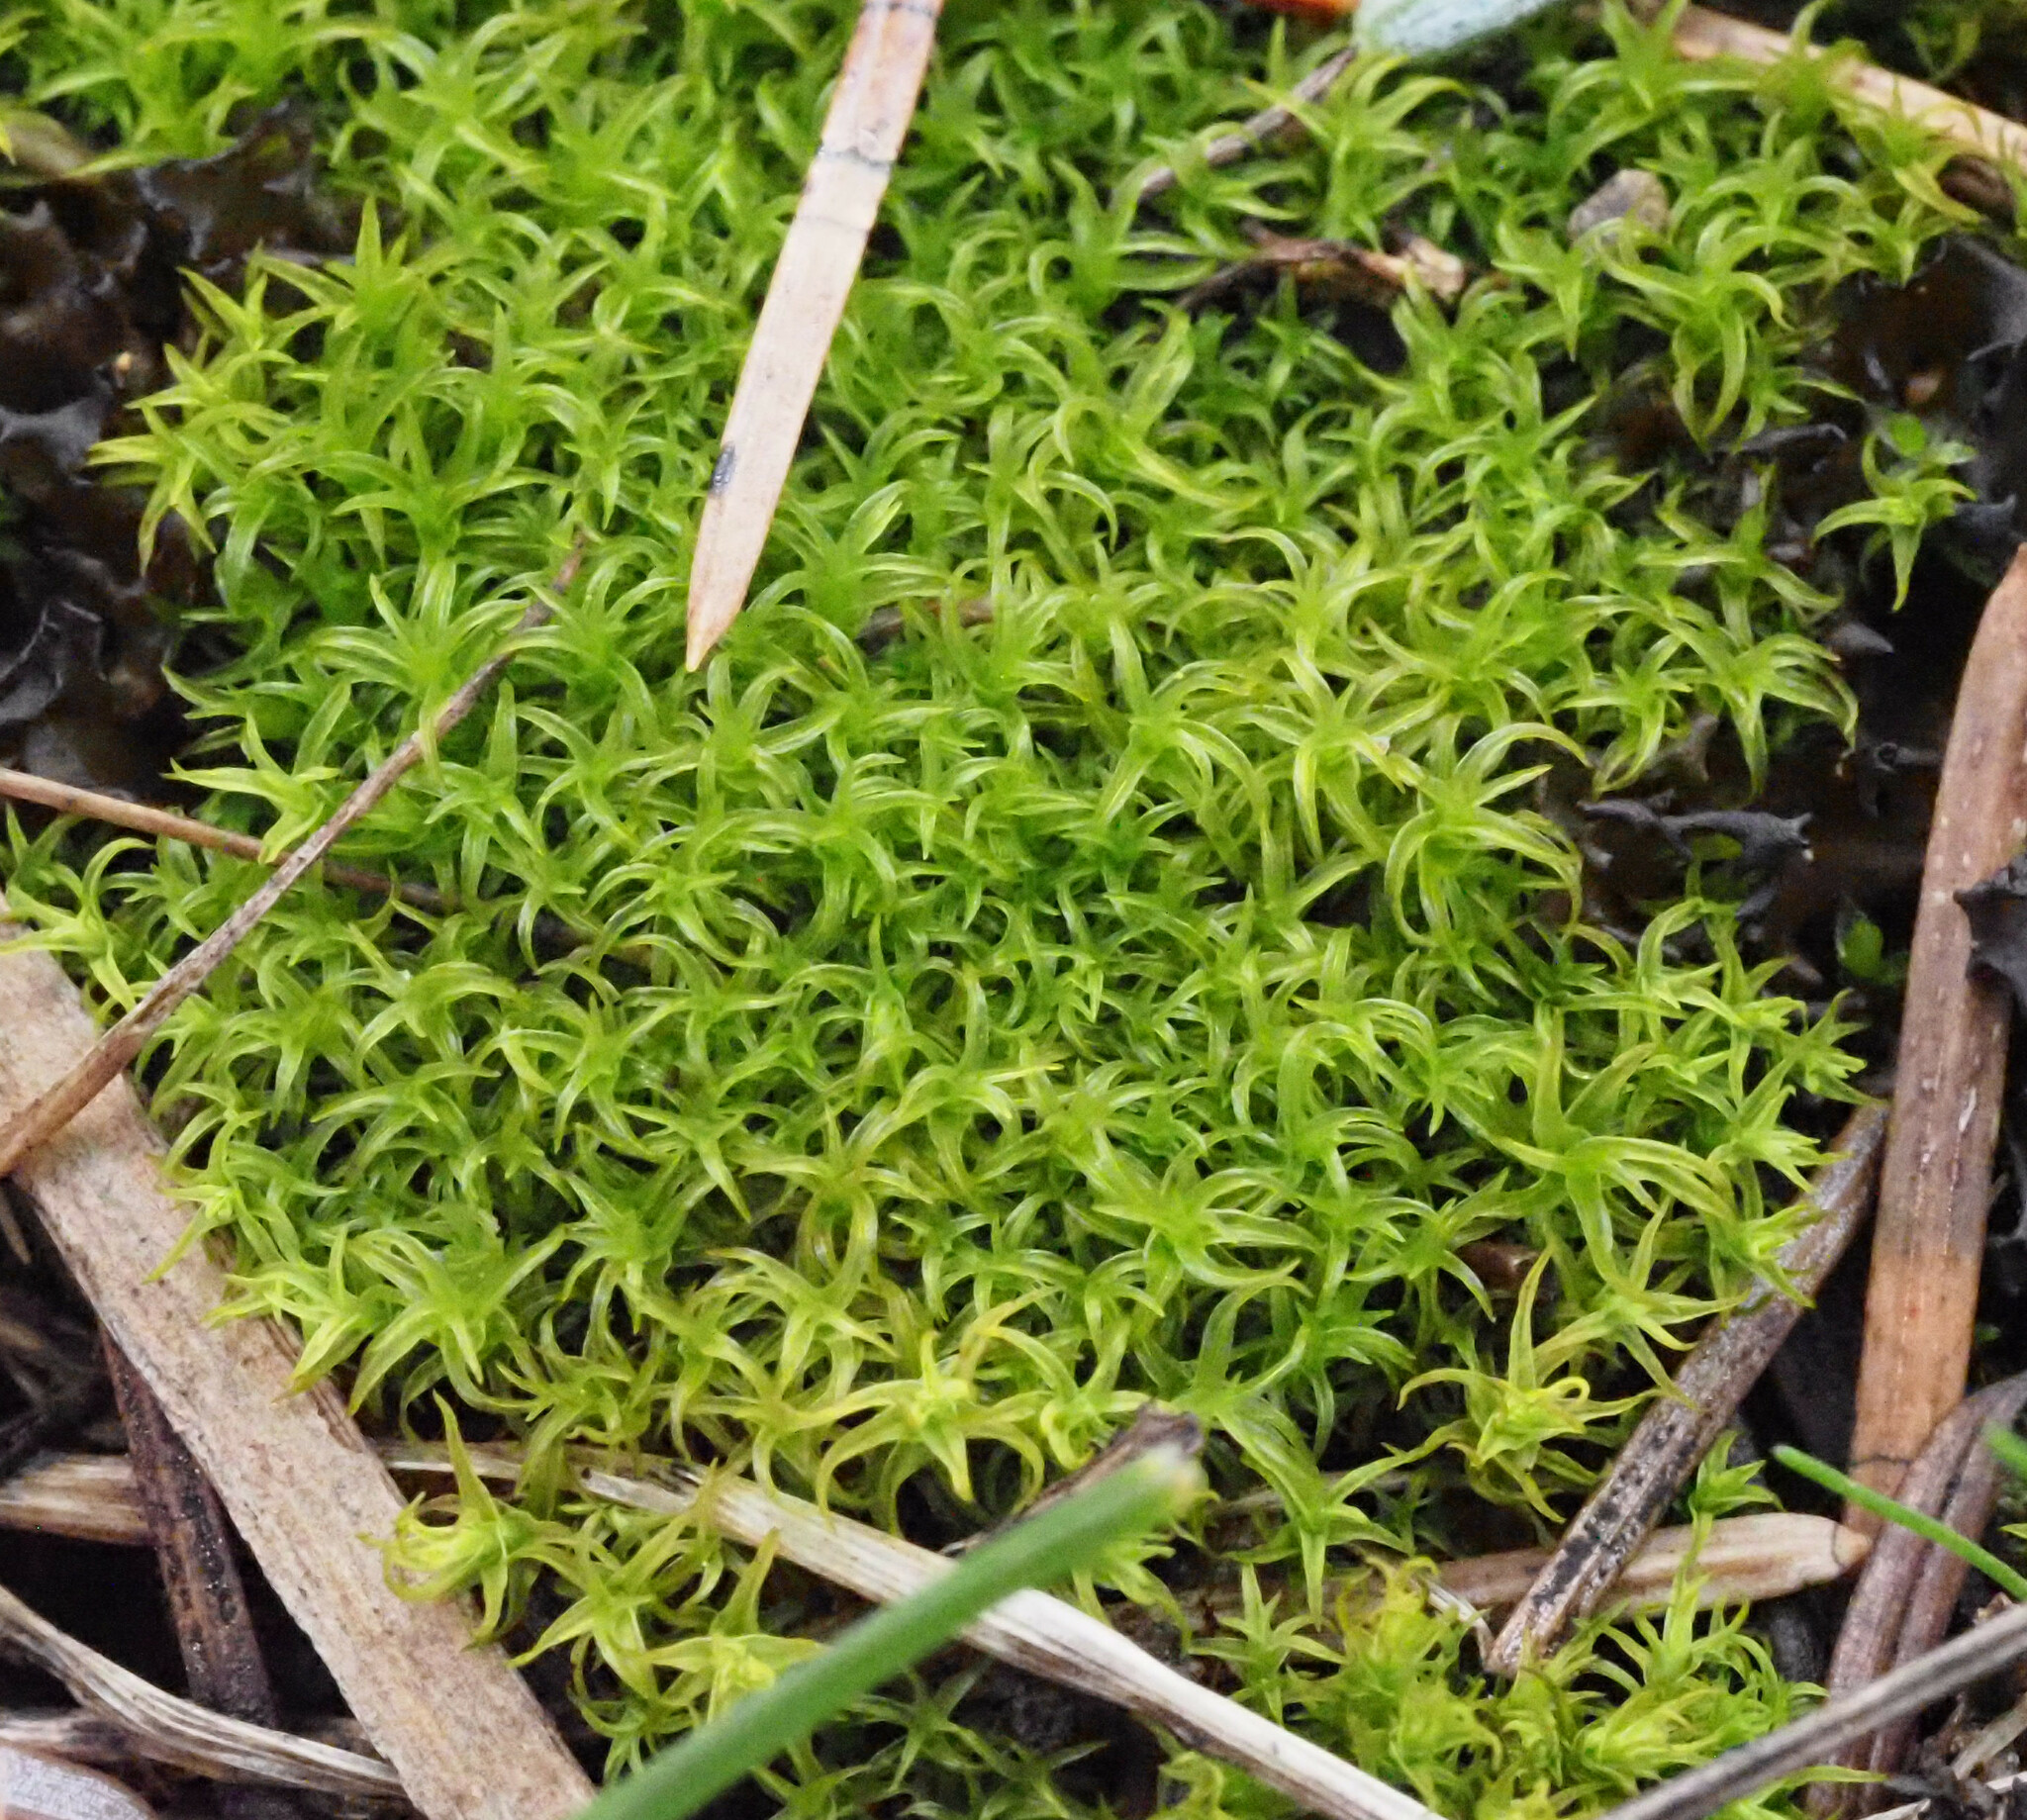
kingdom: Plantae
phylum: Bryophyta
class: Bryopsida
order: Pottiales
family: Pottiaceae
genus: Vinealobryum
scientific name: Vinealobryum insulanum
